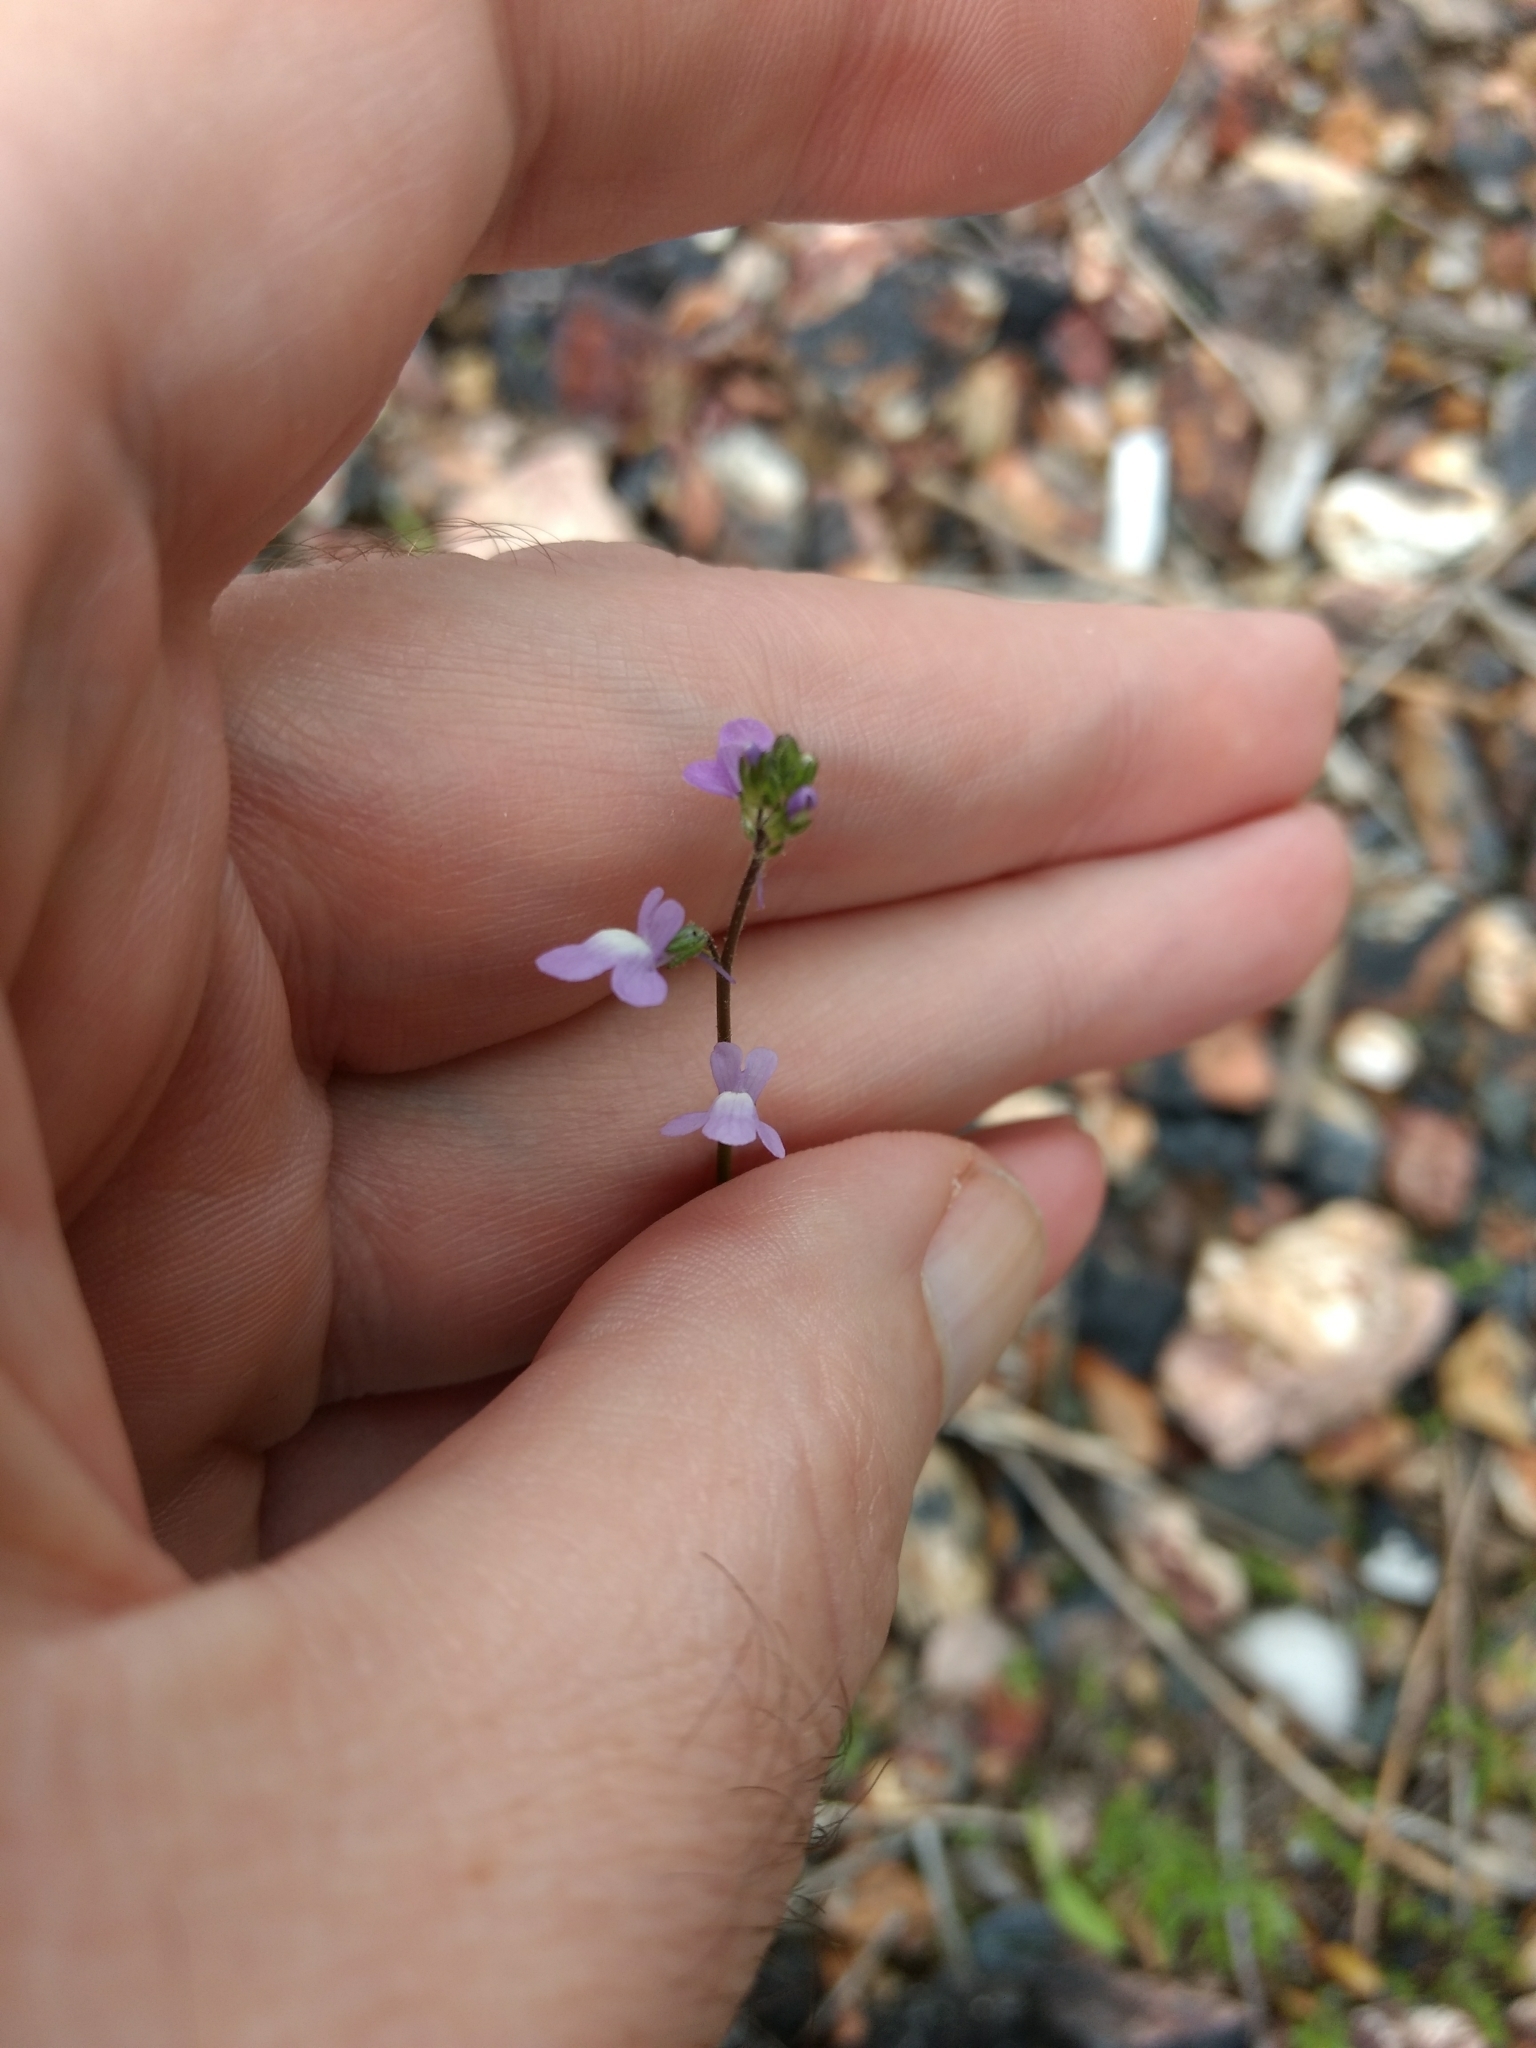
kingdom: Plantae
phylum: Tracheophyta
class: Magnoliopsida
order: Lamiales
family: Plantaginaceae
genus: Nuttallanthus
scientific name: Nuttallanthus canadensis
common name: Blue toadflax
